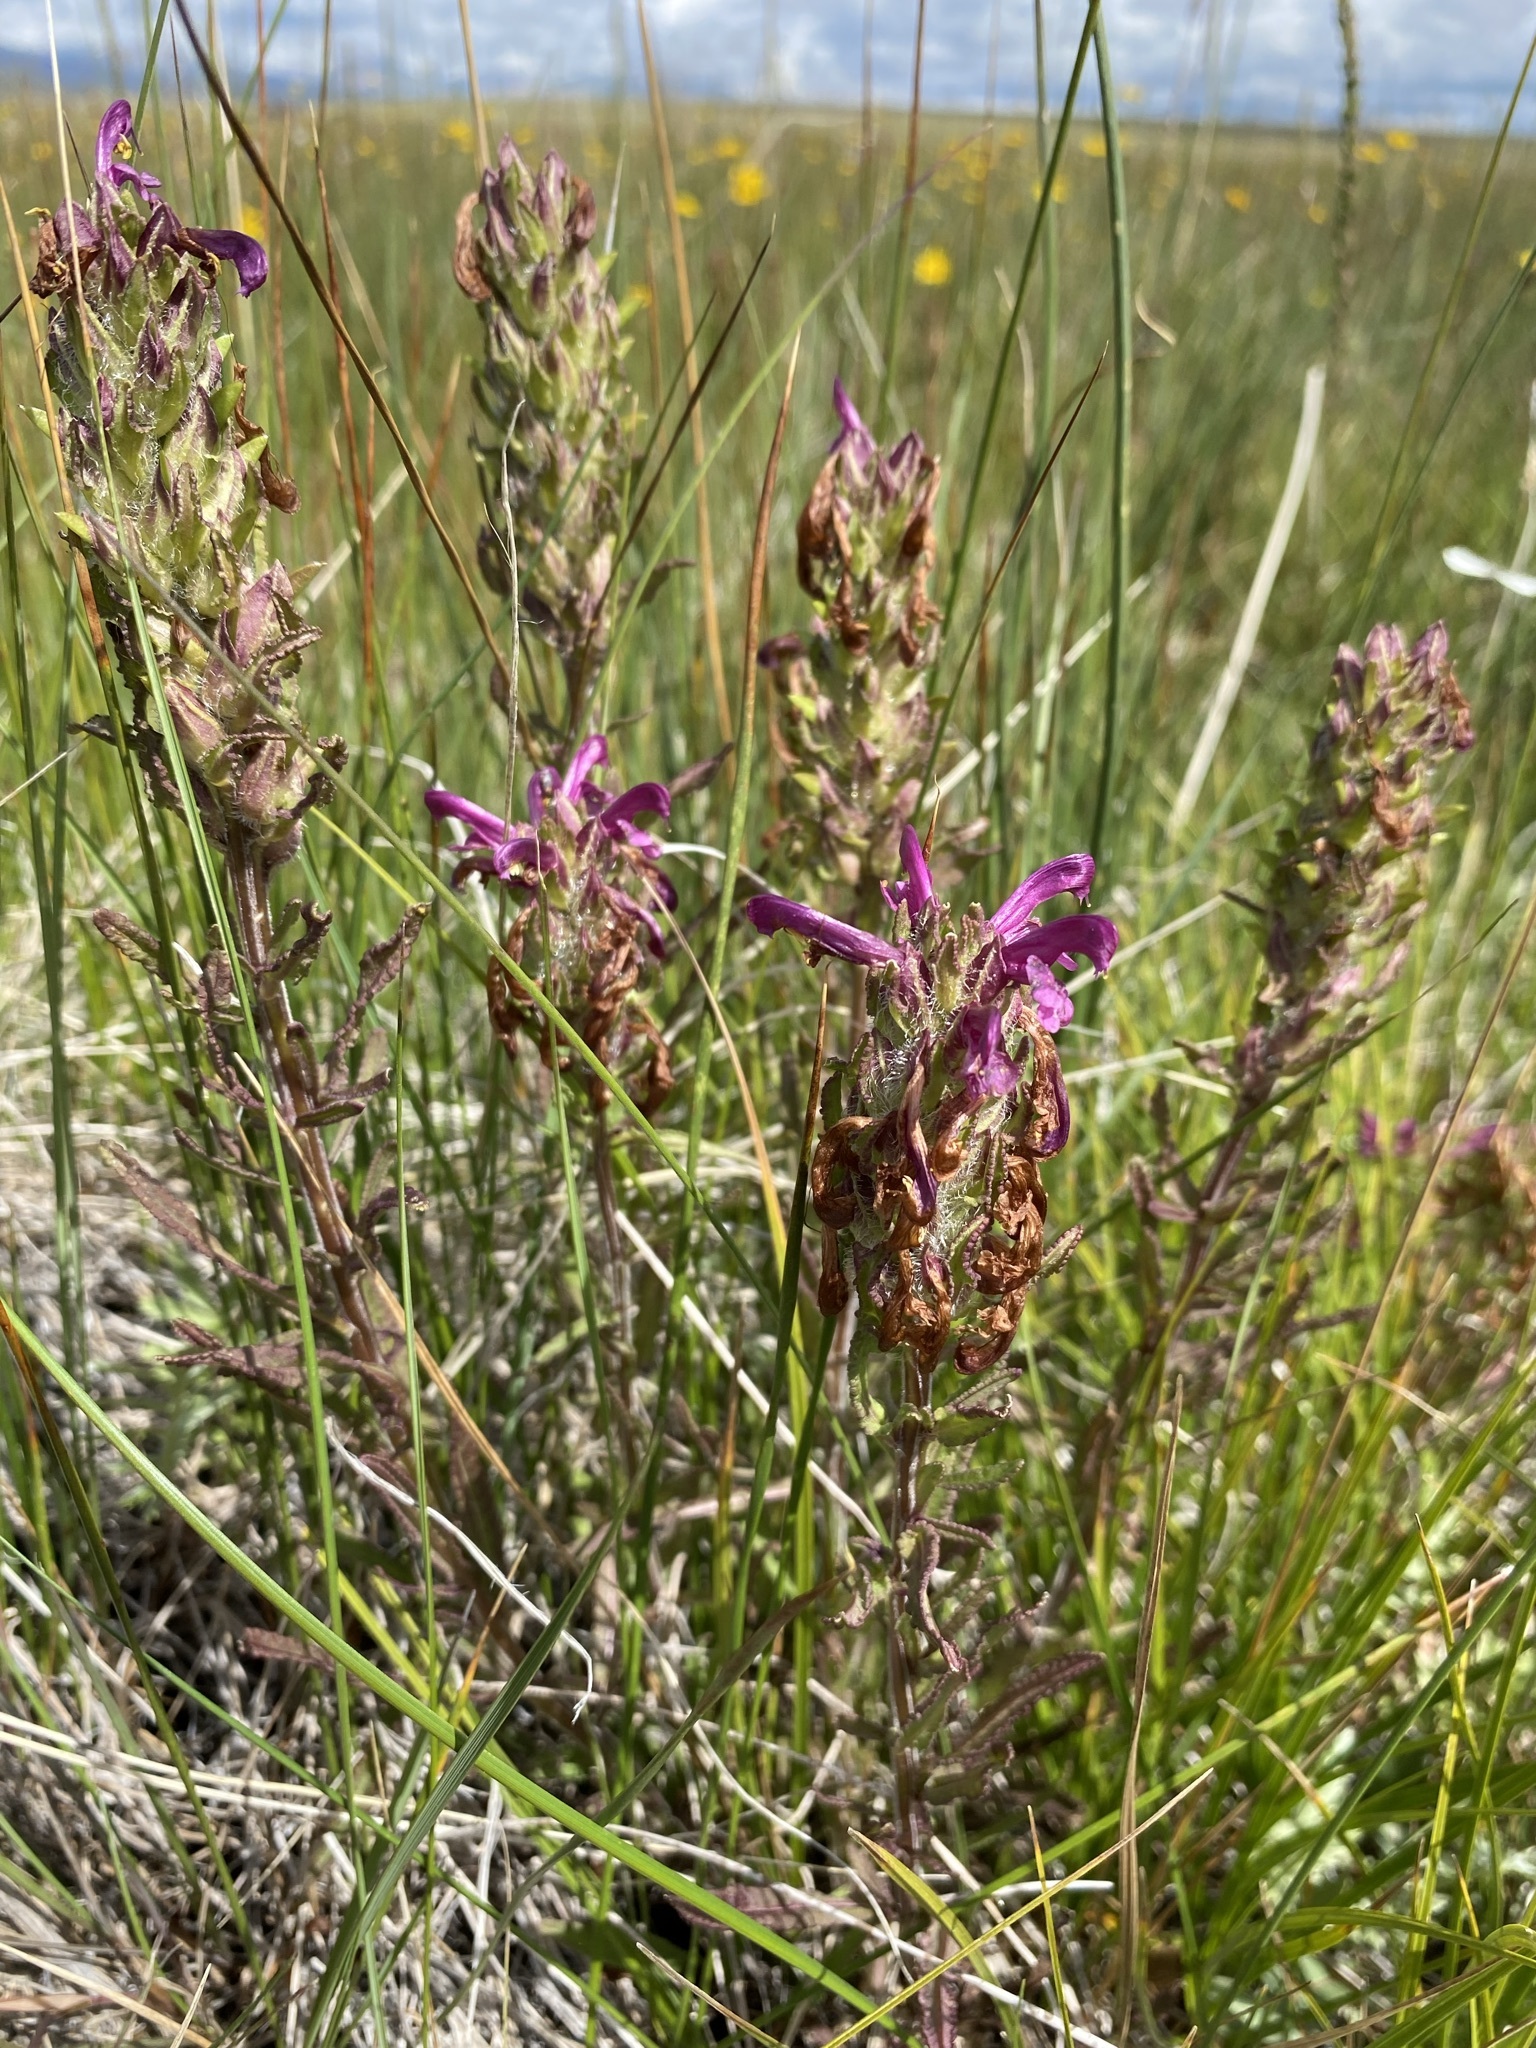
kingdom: Plantae
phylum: Tracheophyta
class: Magnoliopsida
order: Lamiales
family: Orobanchaceae
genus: Pedicularis
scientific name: Pedicularis crenulata
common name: Meadow lousewort
